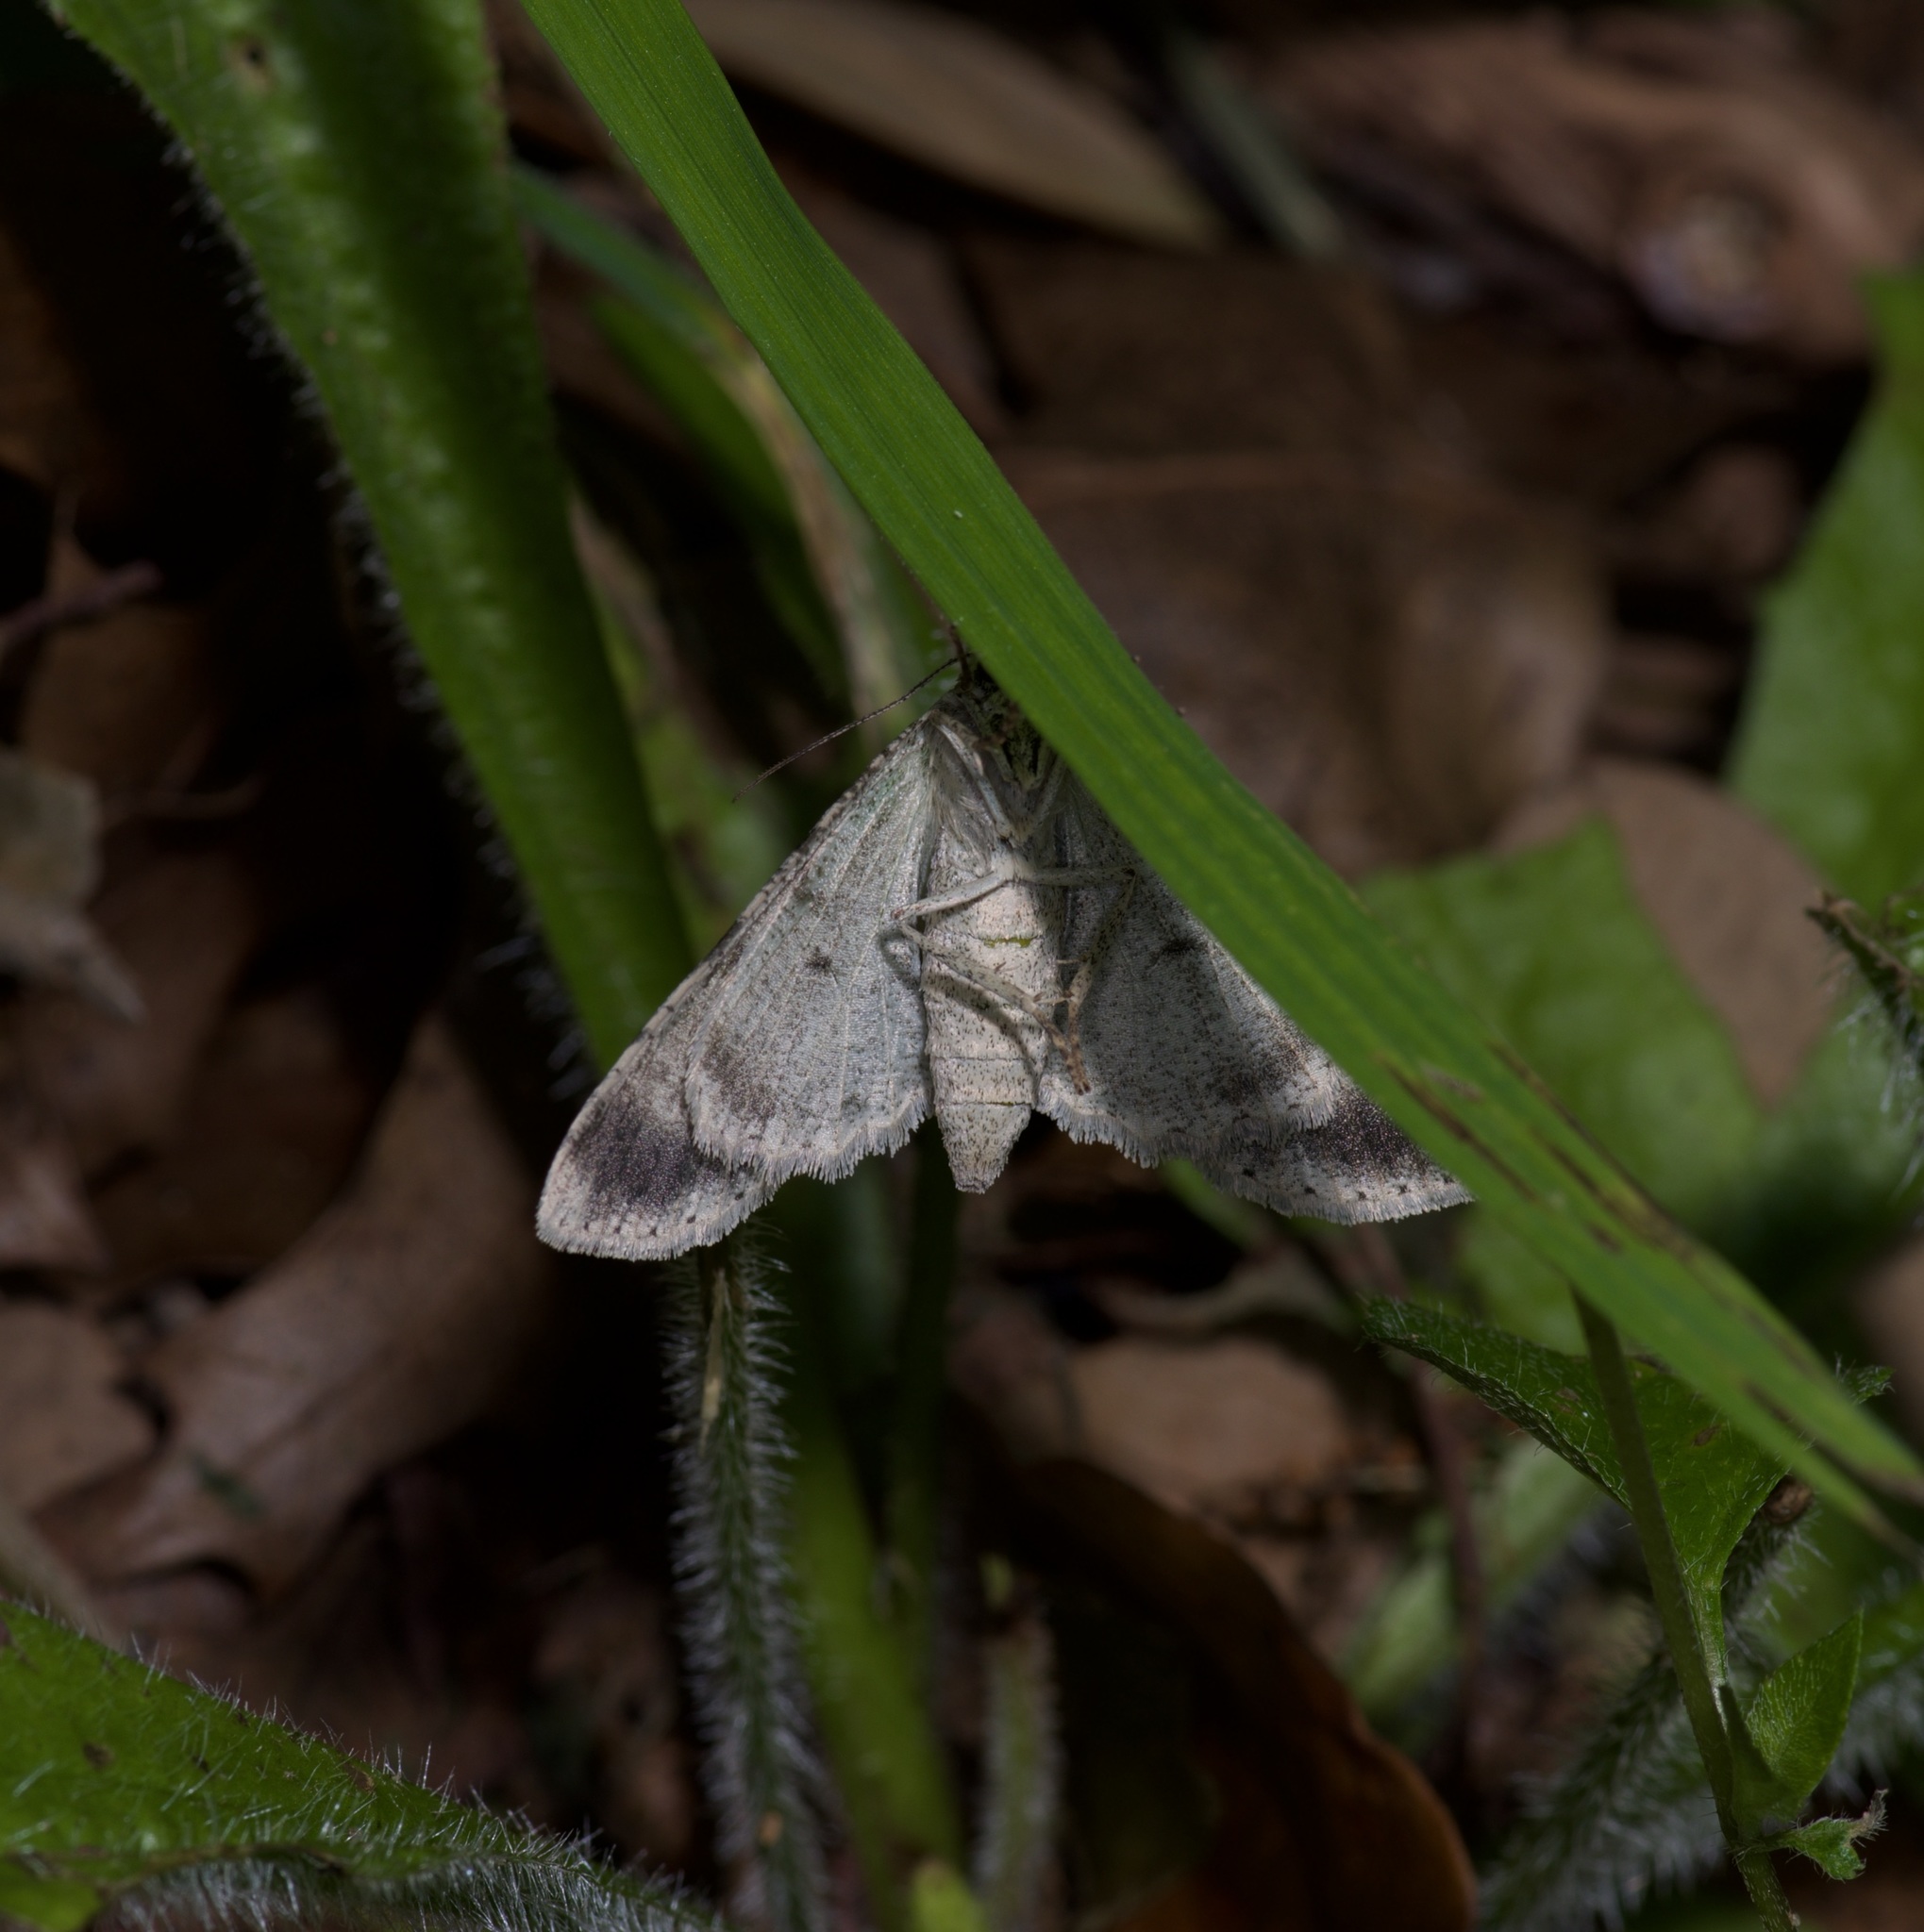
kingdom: Animalia
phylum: Arthropoda
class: Insecta
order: Lepidoptera
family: Geometridae
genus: Iridopsis
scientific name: Iridopsis defectaria
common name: Brown-shaded gray
